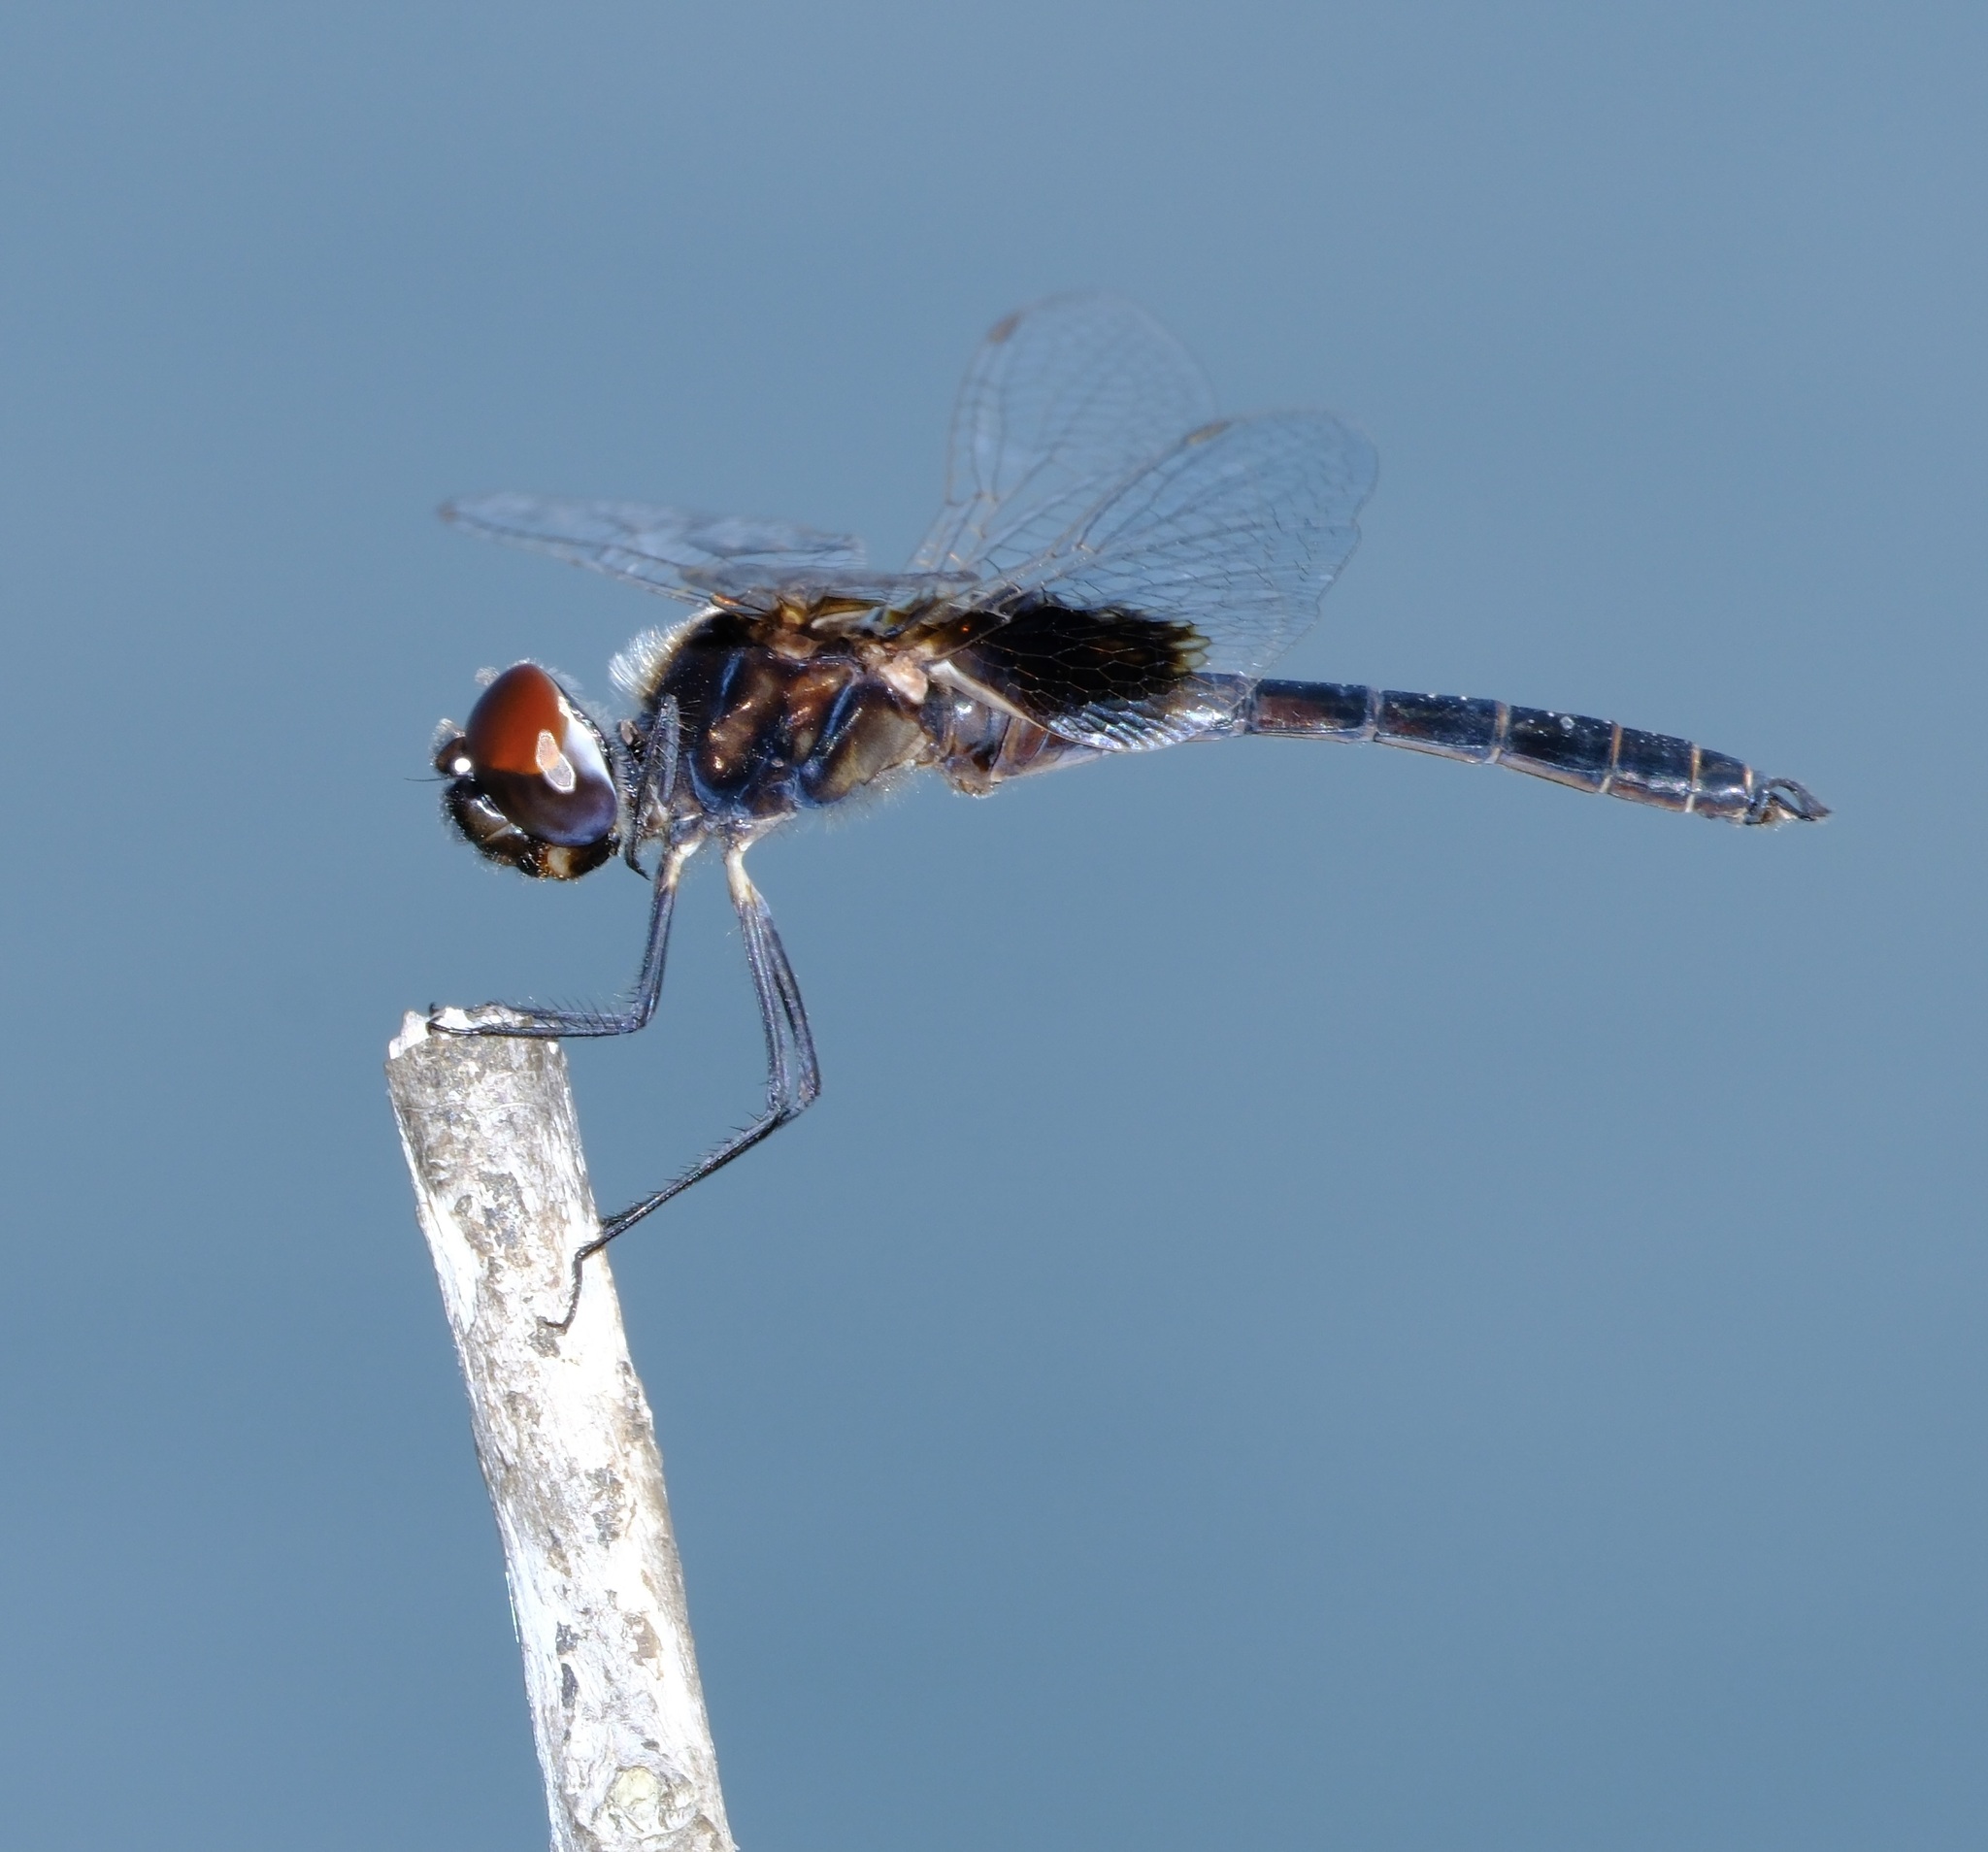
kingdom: Animalia
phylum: Arthropoda
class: Insecta
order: Odonata
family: Libellulidae
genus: Macrodiplax
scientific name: Macrodiplax balteata
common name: Marl pennant
